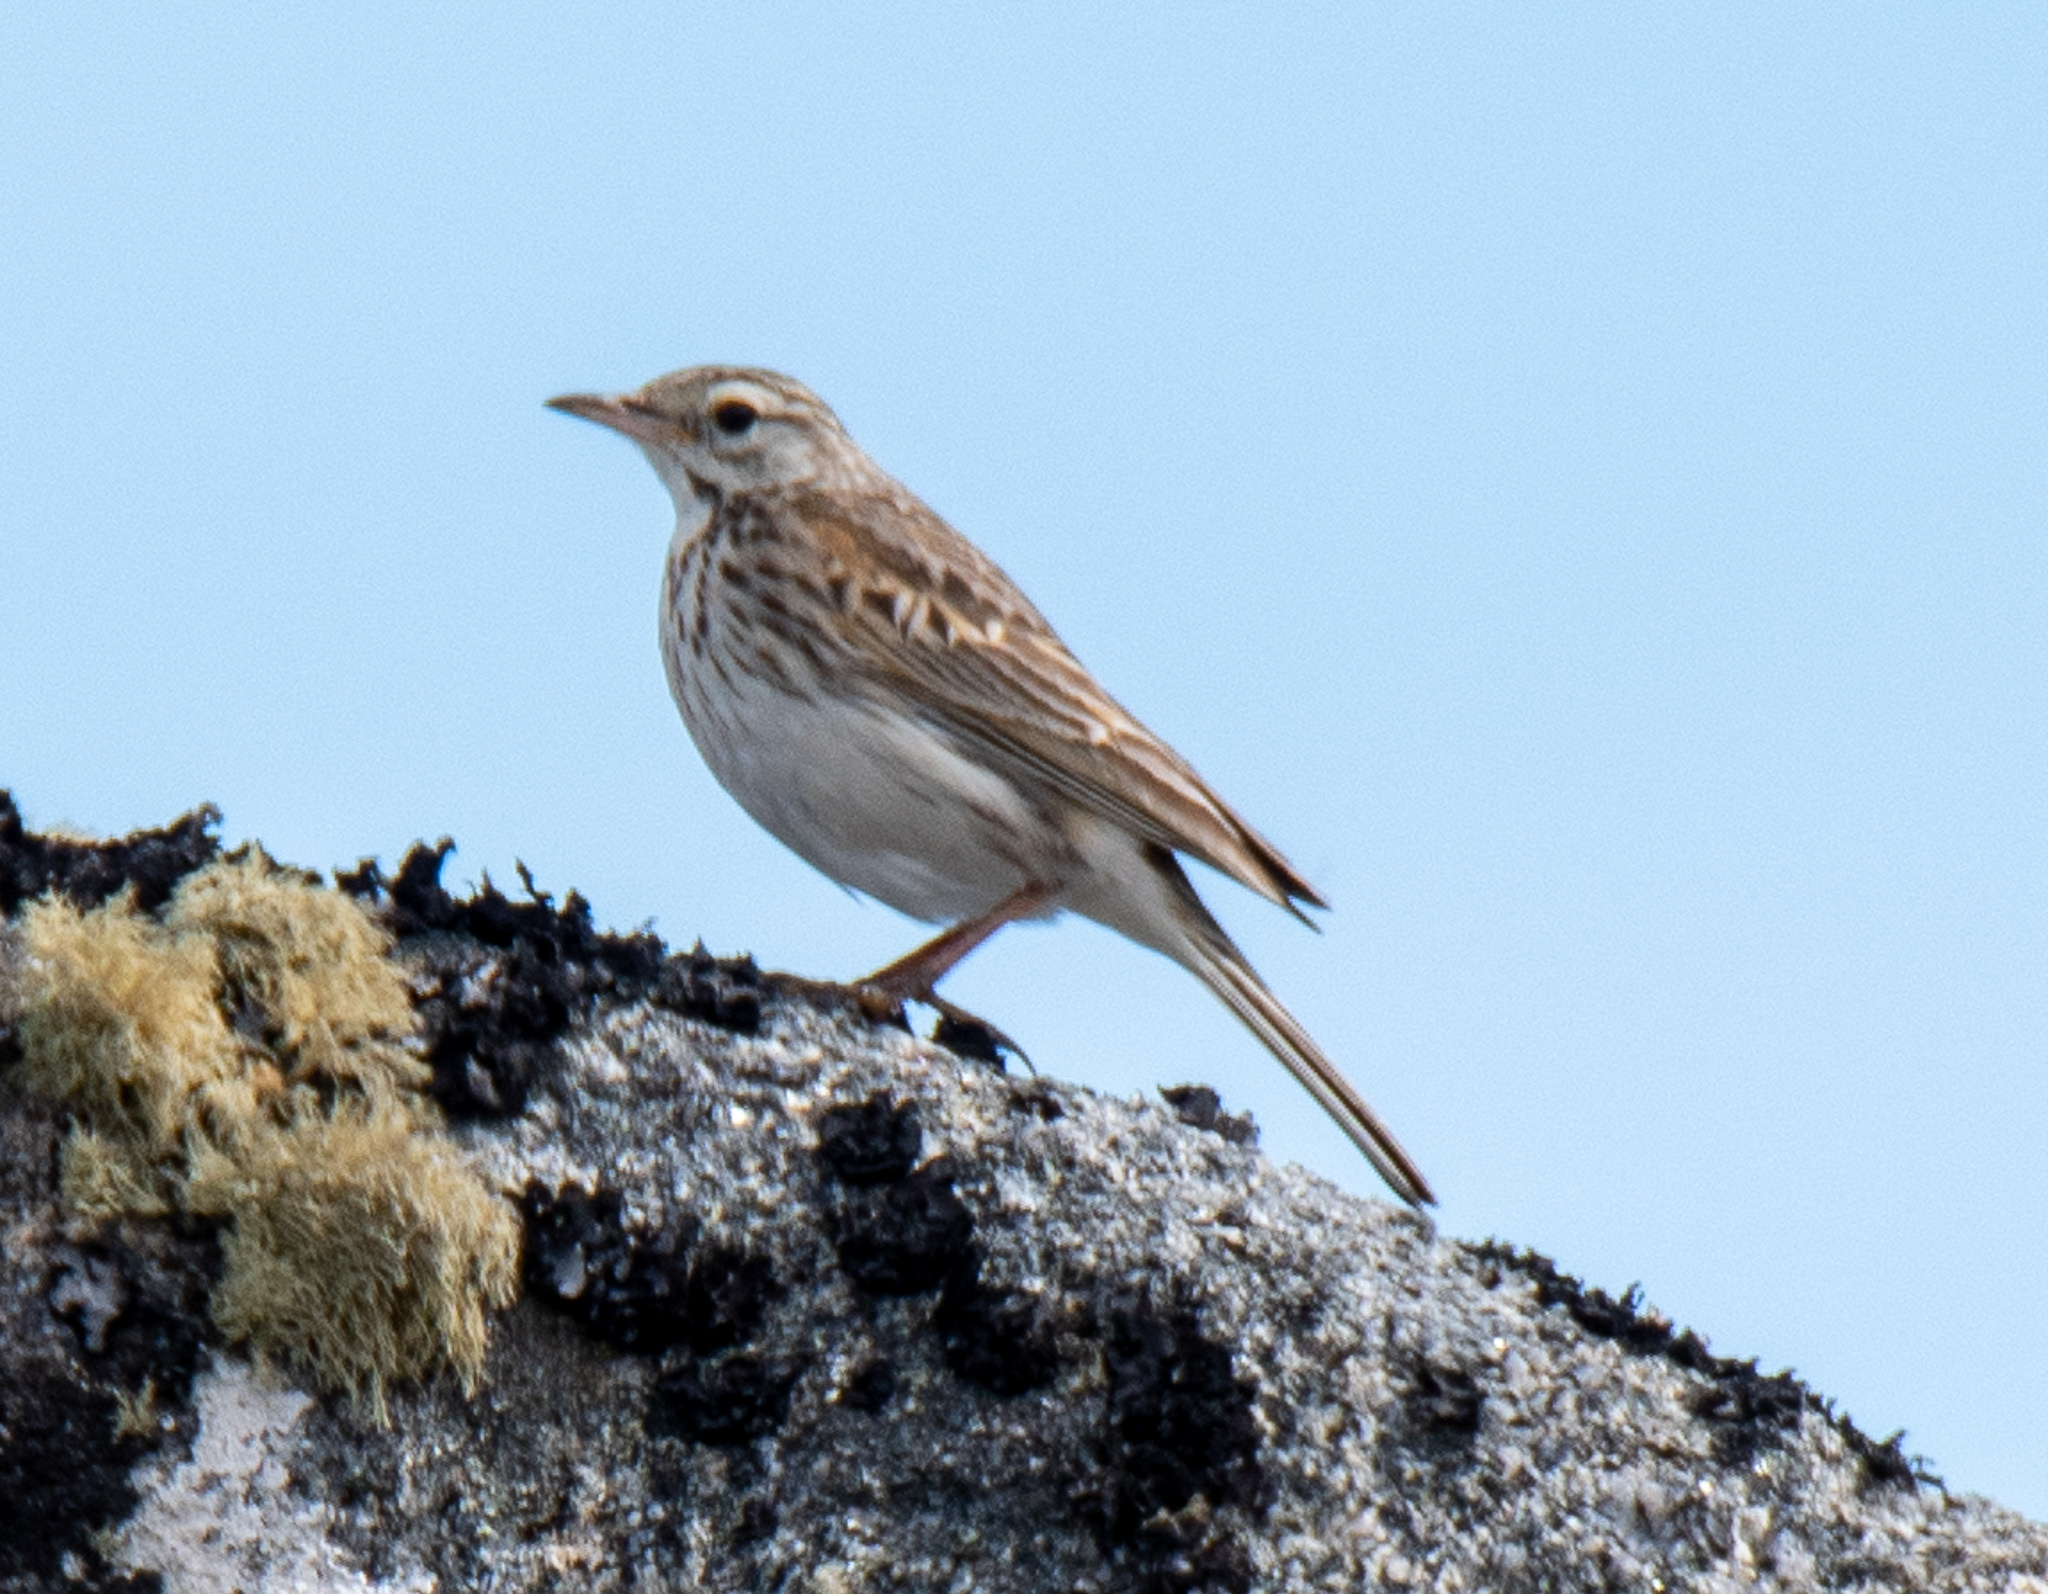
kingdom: Animalia
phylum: Chordata
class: Aves
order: Passeriformes
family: Motacillidae
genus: Anthus
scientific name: Anthus australis
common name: Australian pipit
